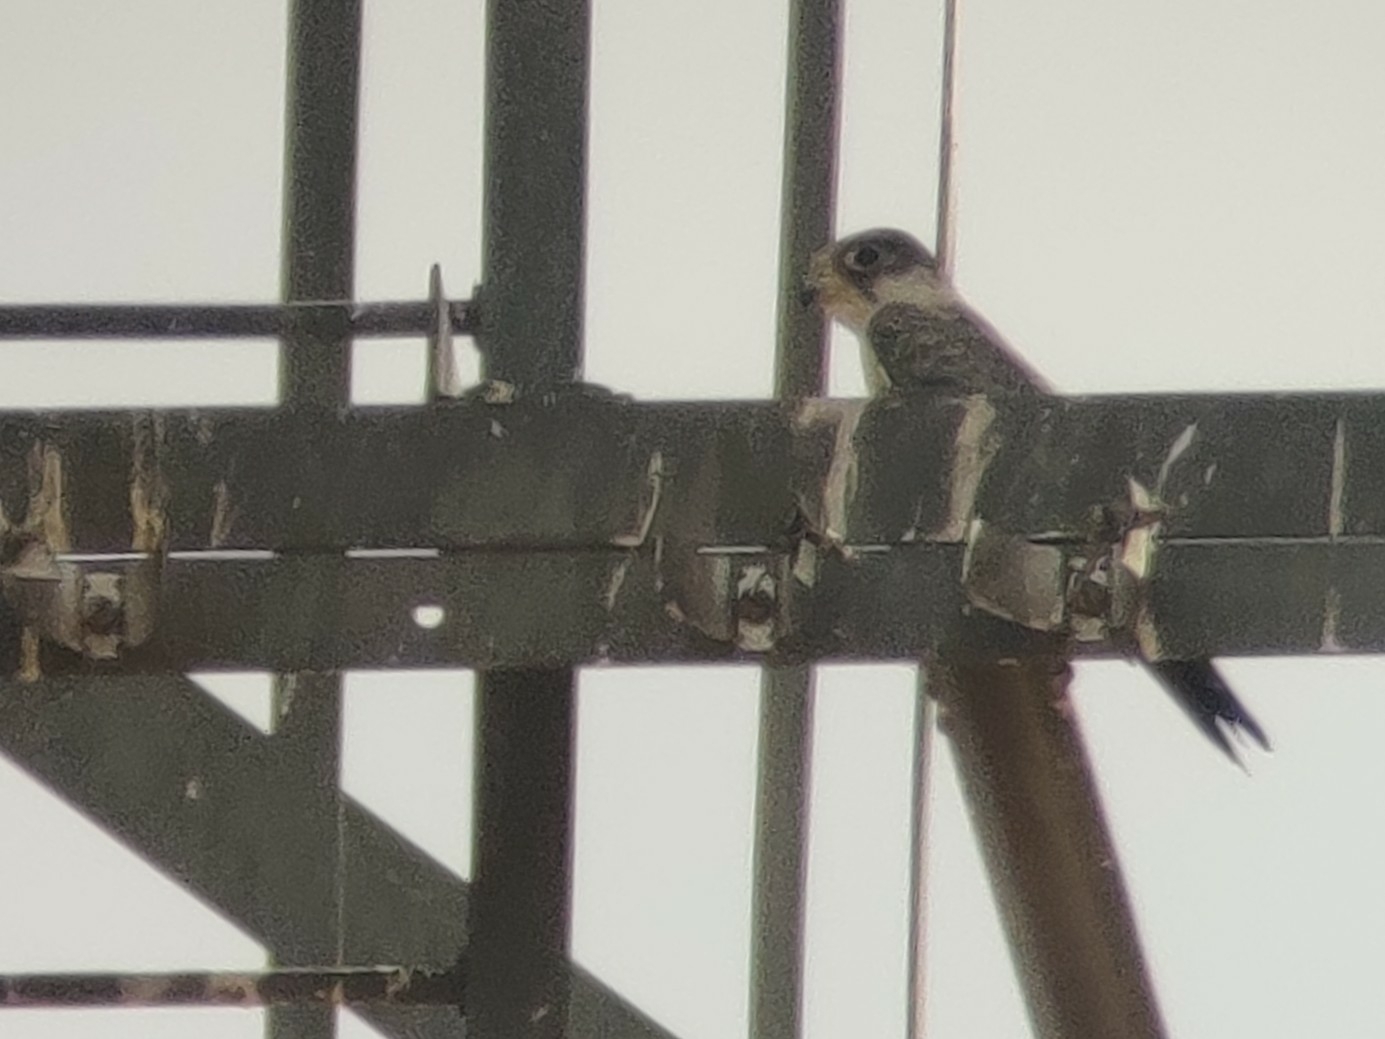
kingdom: Animalia
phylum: Chordata
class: Aves
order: Falconiformes
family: Falconidae
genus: Falco
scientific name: Falco hypoleucos
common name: Grey falcon
